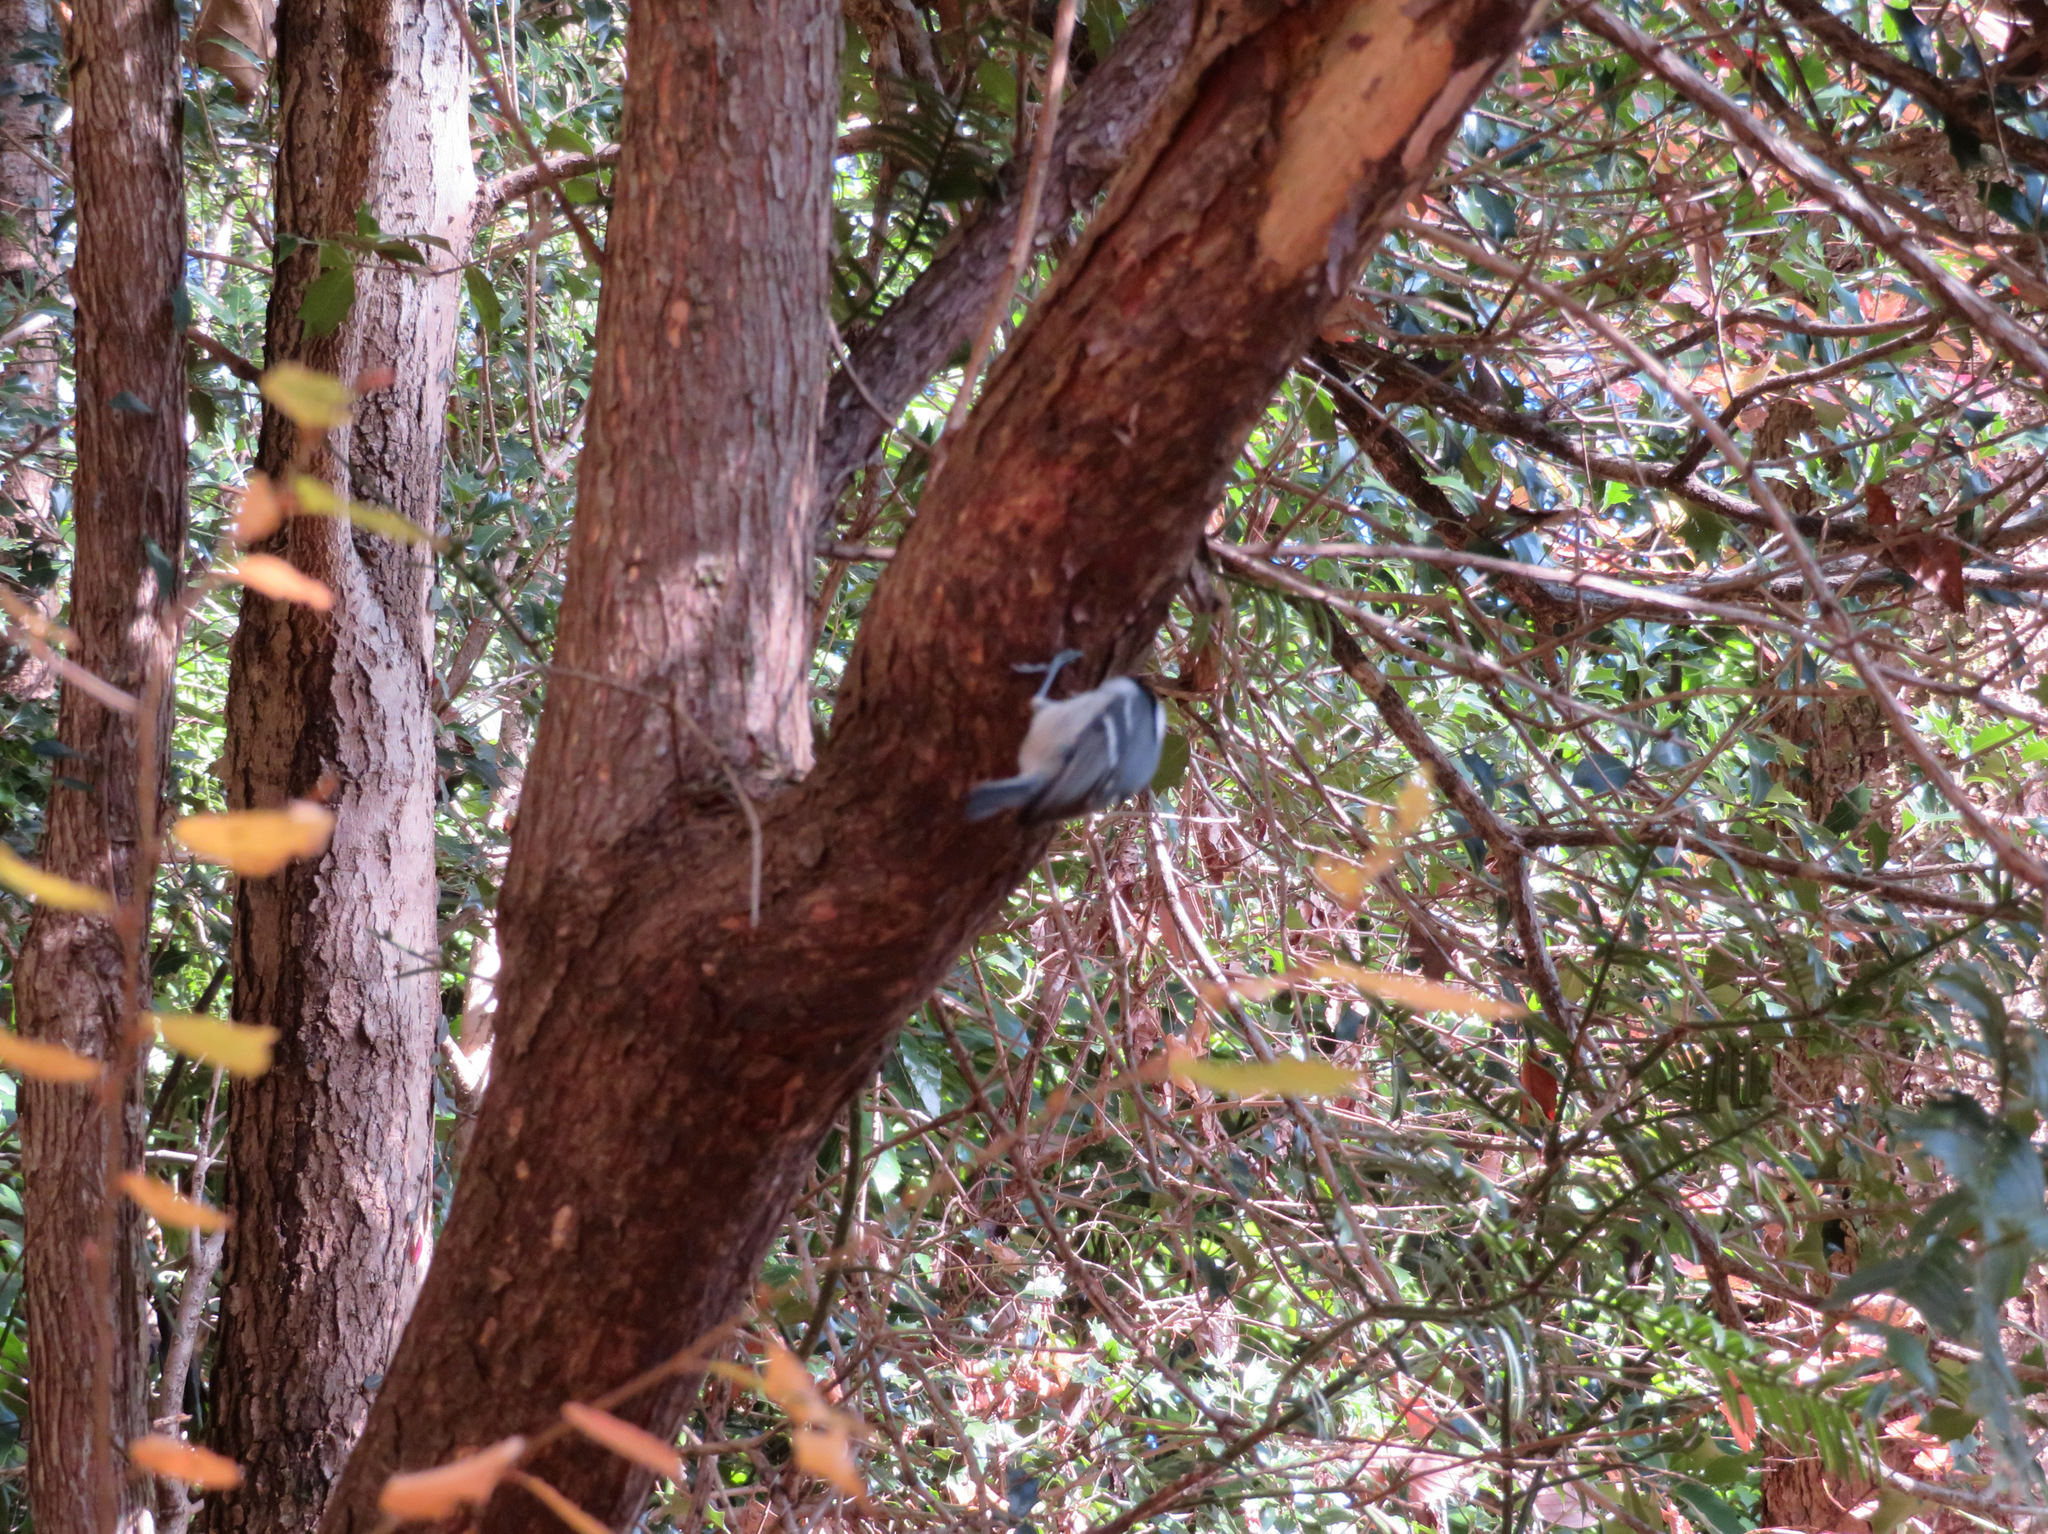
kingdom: Animalia
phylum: Chordata
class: Aves
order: Passeriformes
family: Paridae
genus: Periparus
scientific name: Periparus ater
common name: Coal tit
